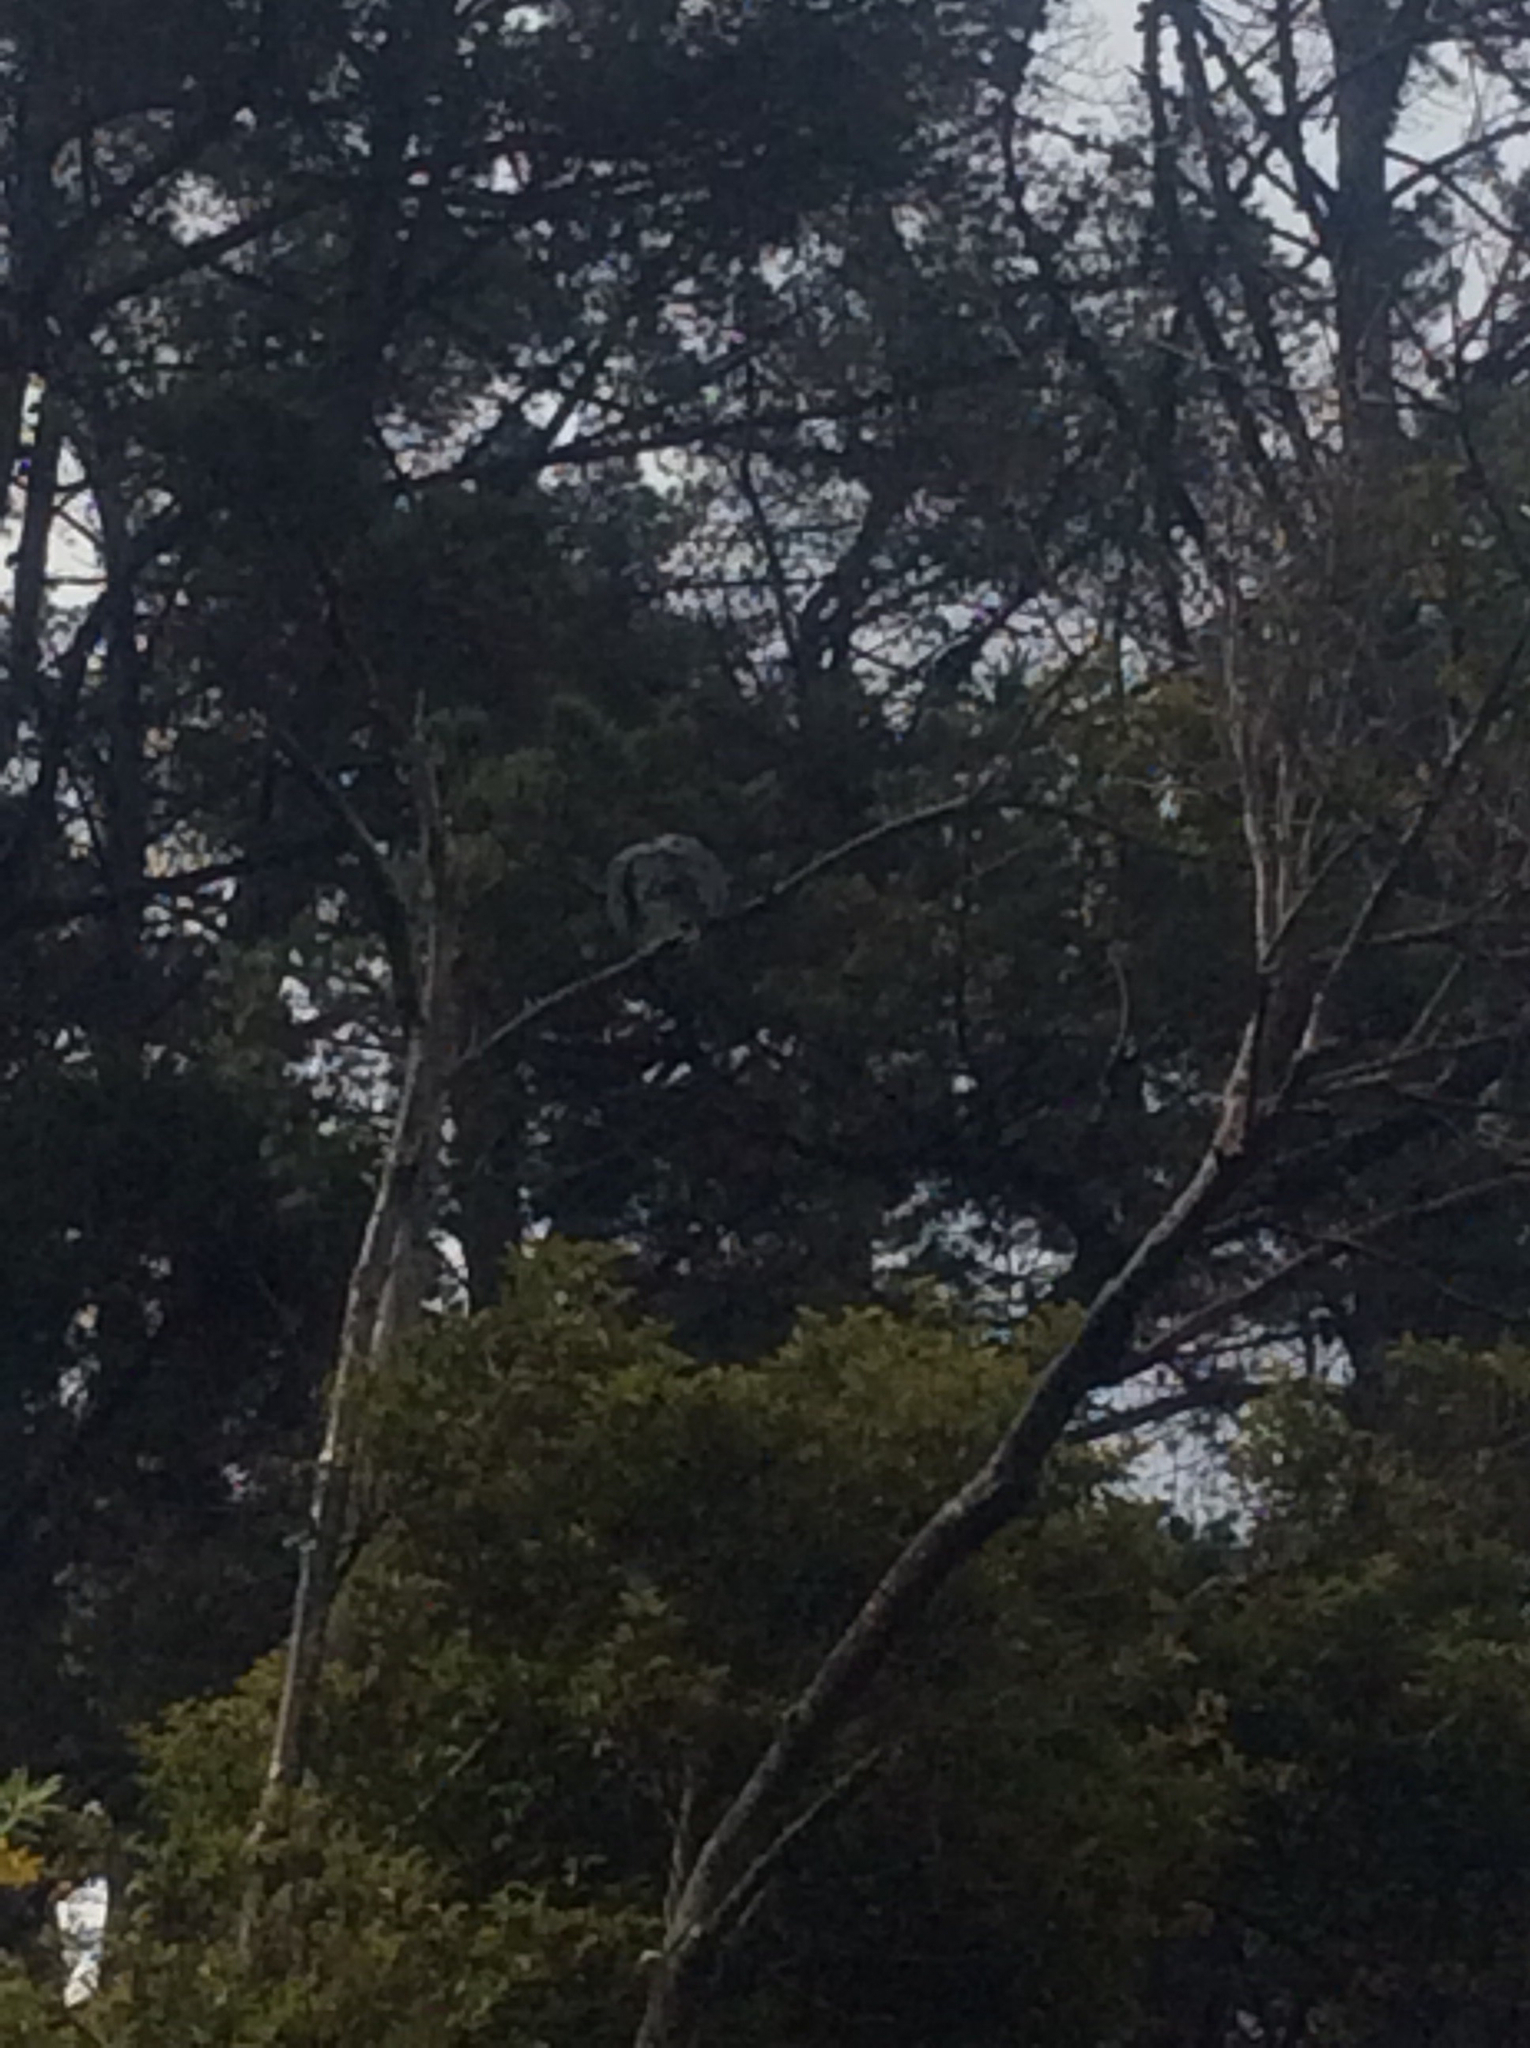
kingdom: Animalia
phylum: Chordata
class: Aves
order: Columbiformes
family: Columbidae
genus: Hemiphaga
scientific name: Hemiphaga novaeseelandiae
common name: New zealand pigeon
